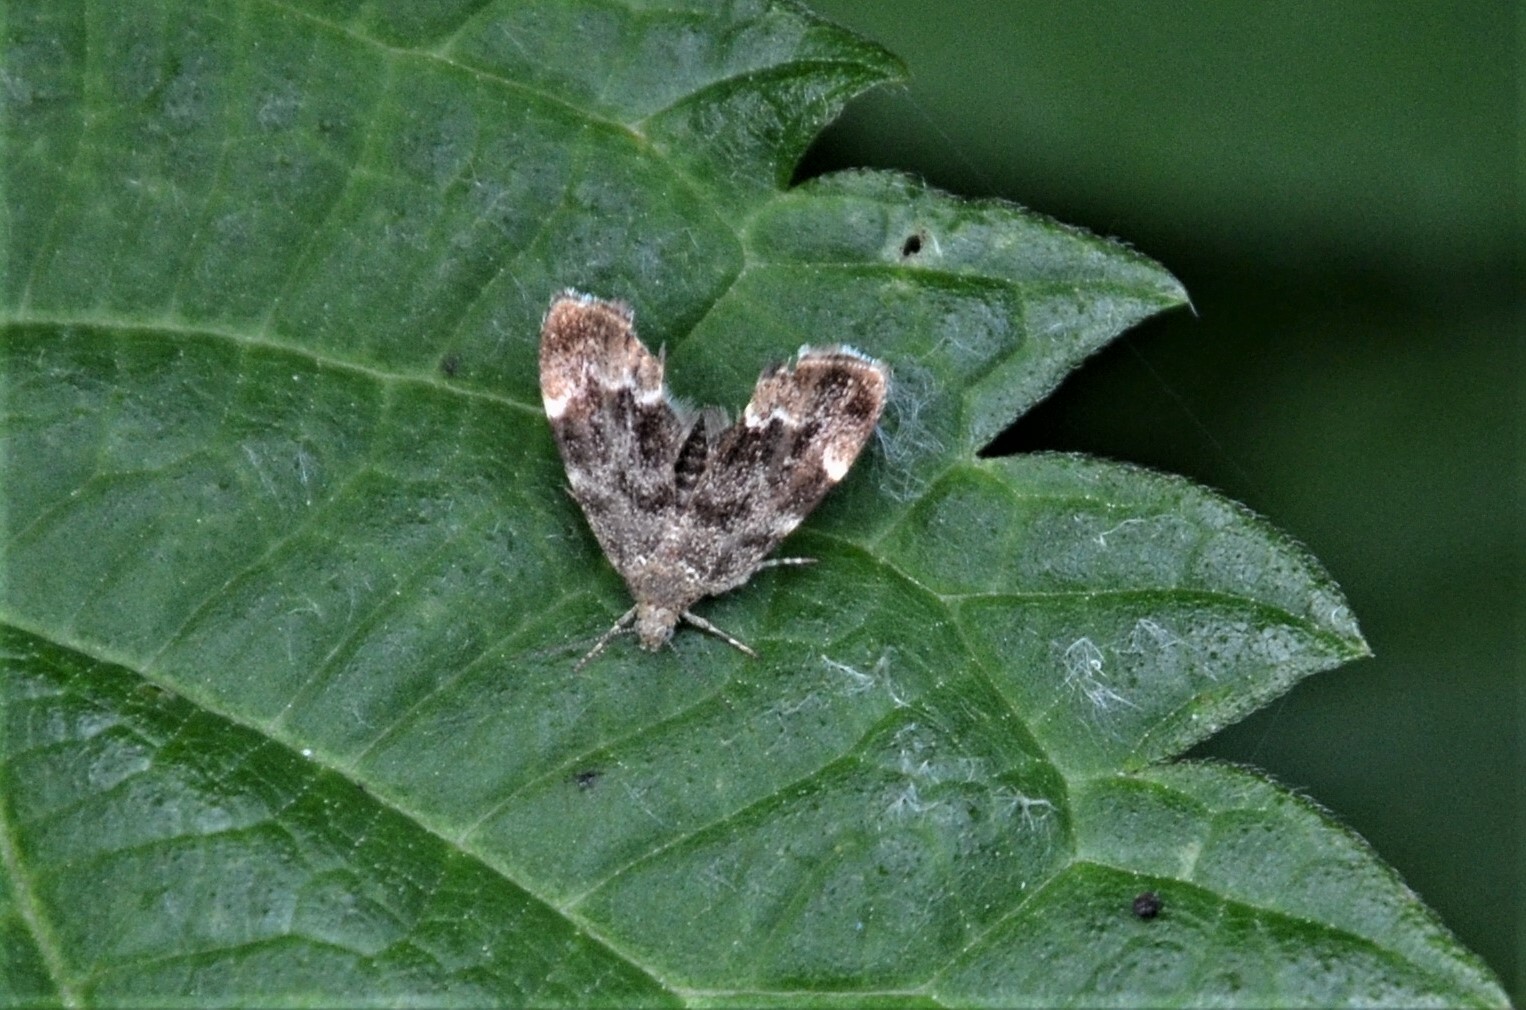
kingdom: Animalia
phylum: Arthropoda
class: Insecta
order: Lepidoptera
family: Choreutidae
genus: Anthophila
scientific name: Anthophila fabriciana
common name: Nettle-tap
